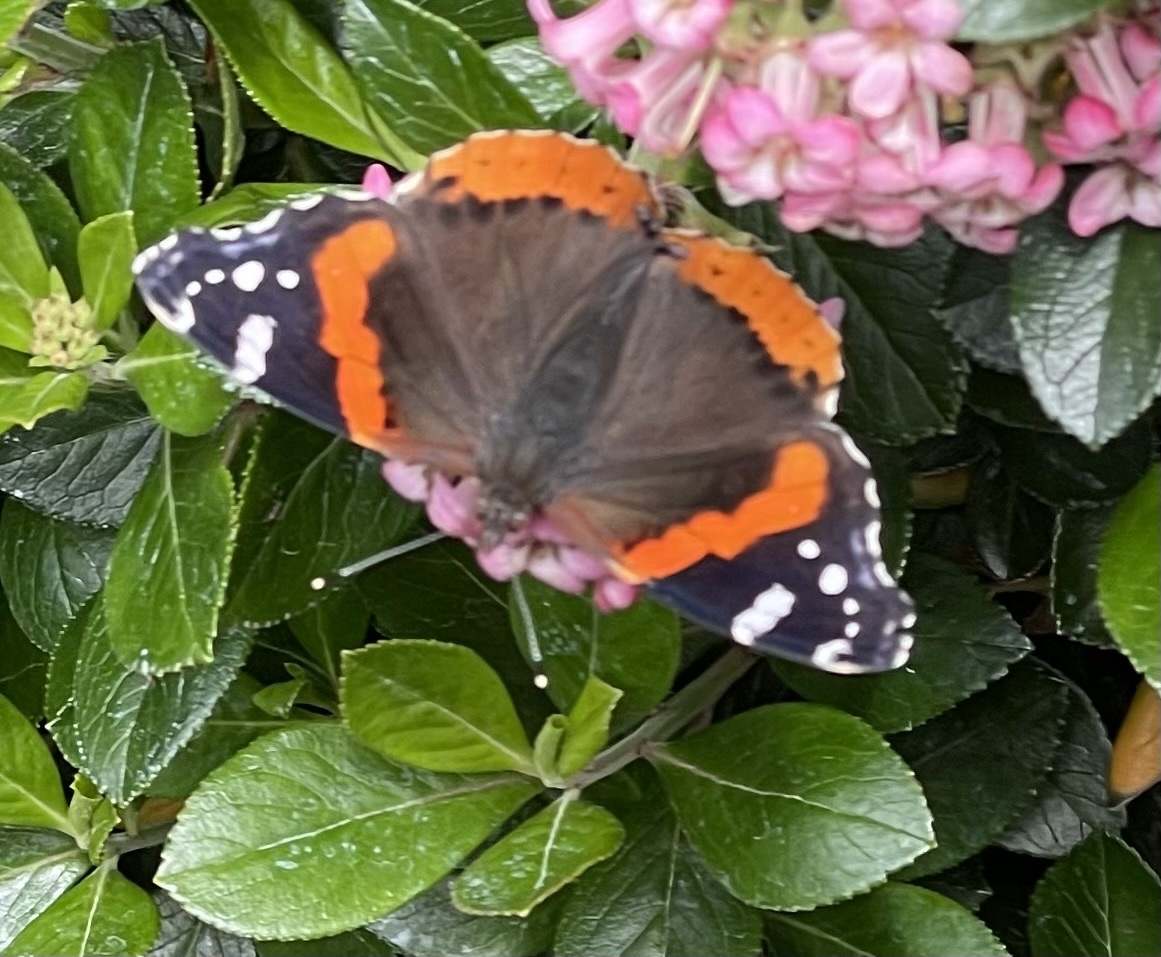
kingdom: Animalia
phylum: Arthropoda
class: Insecta
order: Lepidoptera
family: Nymphalidae
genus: Vanessa
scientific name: Vanessa atalanta
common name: Red admiral
